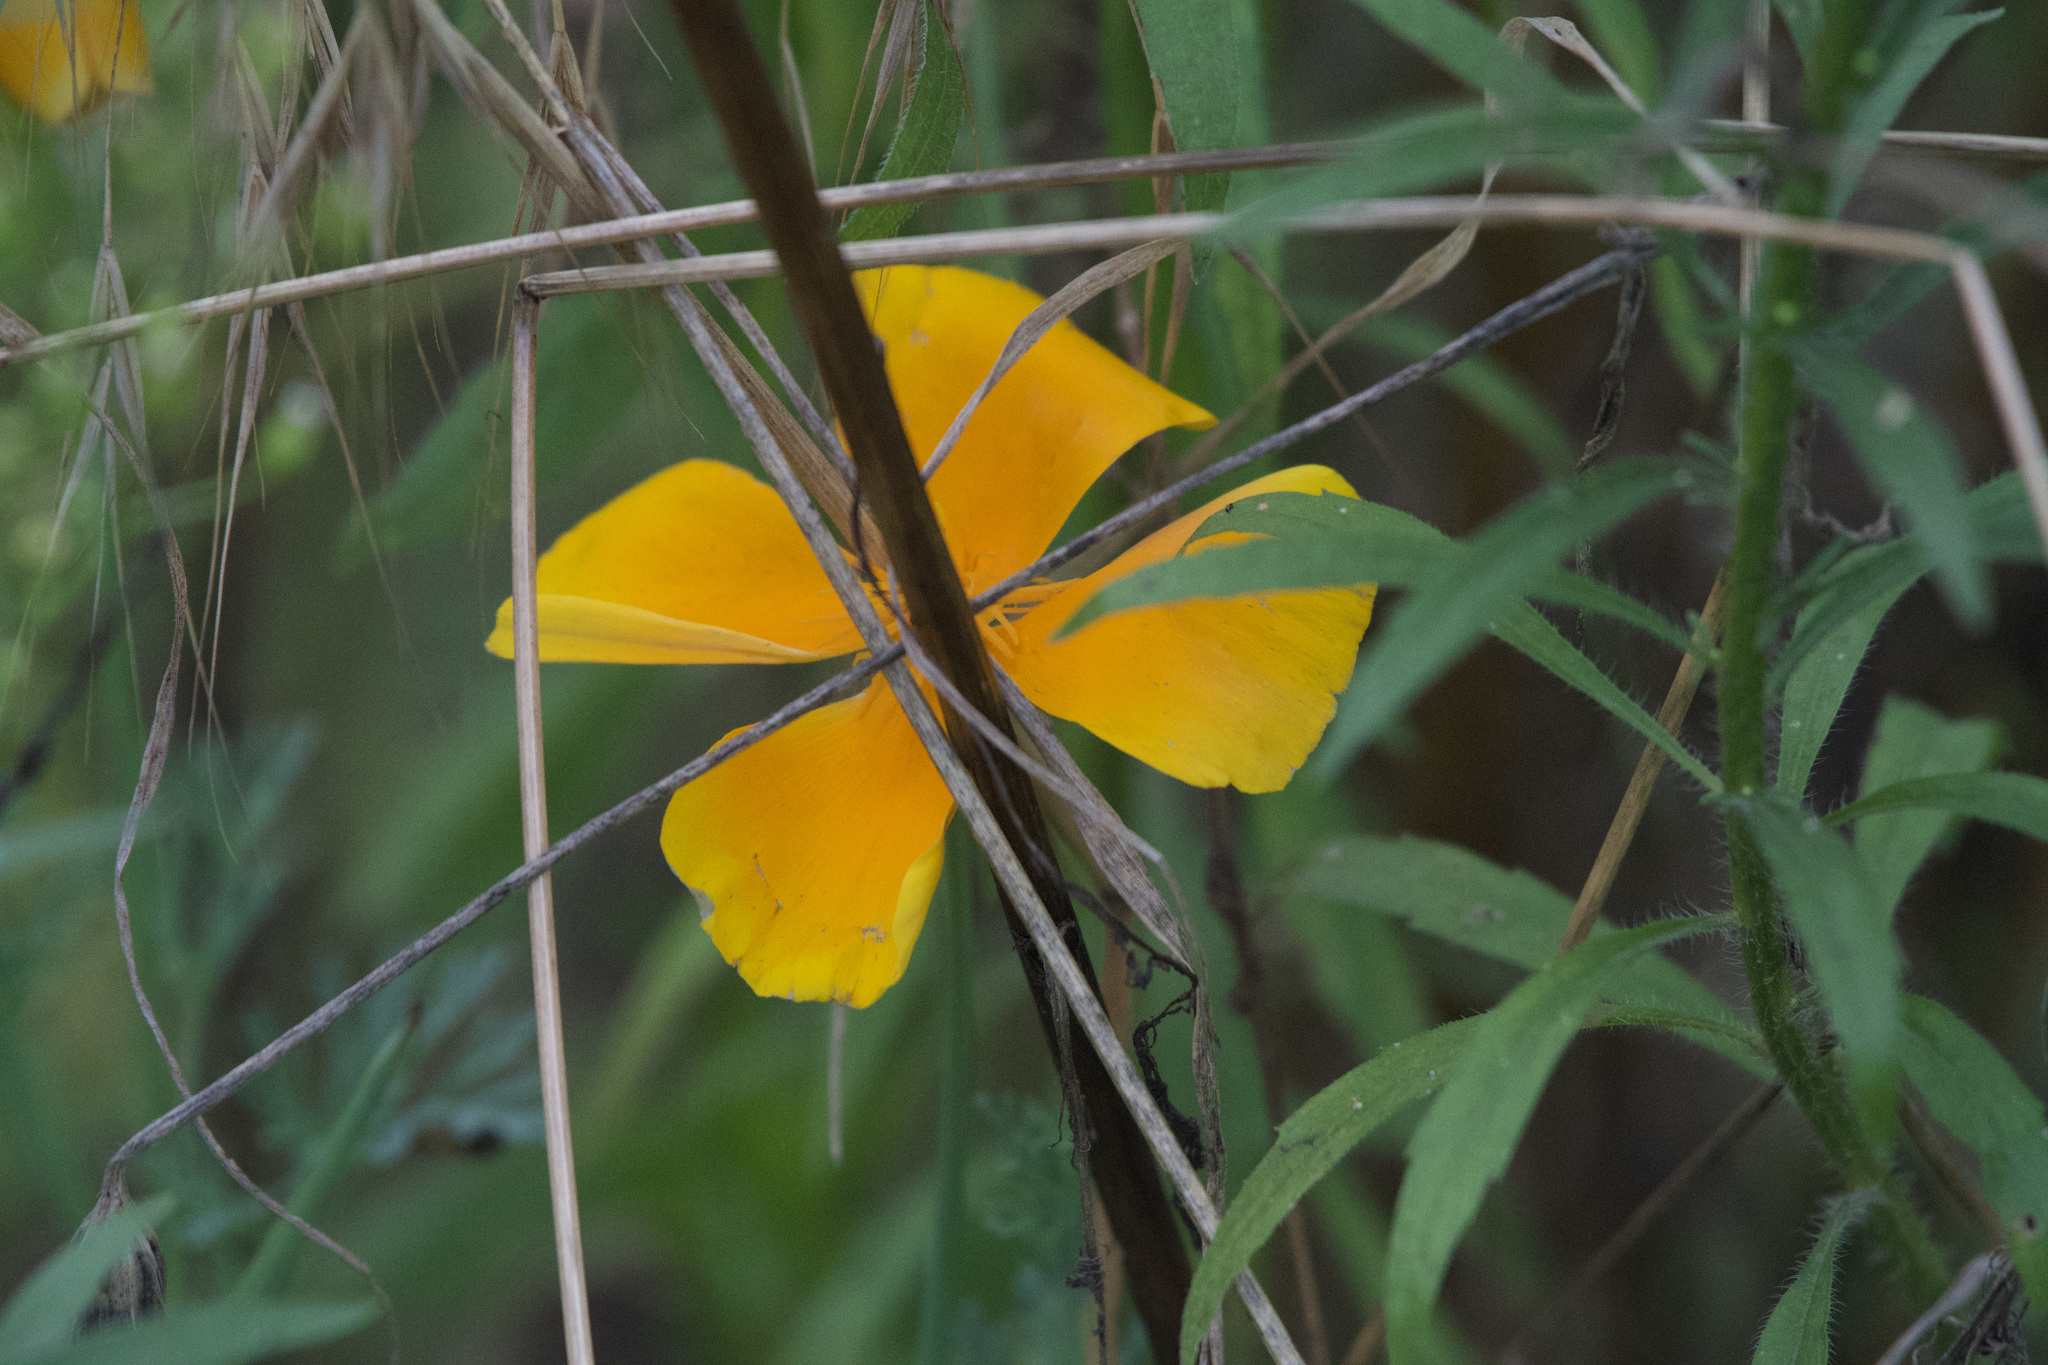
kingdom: Plantae
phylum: Tracheophyta
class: Magnoliopsida
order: Ranunculales
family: Papaveraceae
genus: Eschscholzia
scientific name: Eschscholzia californica
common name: California poppy
